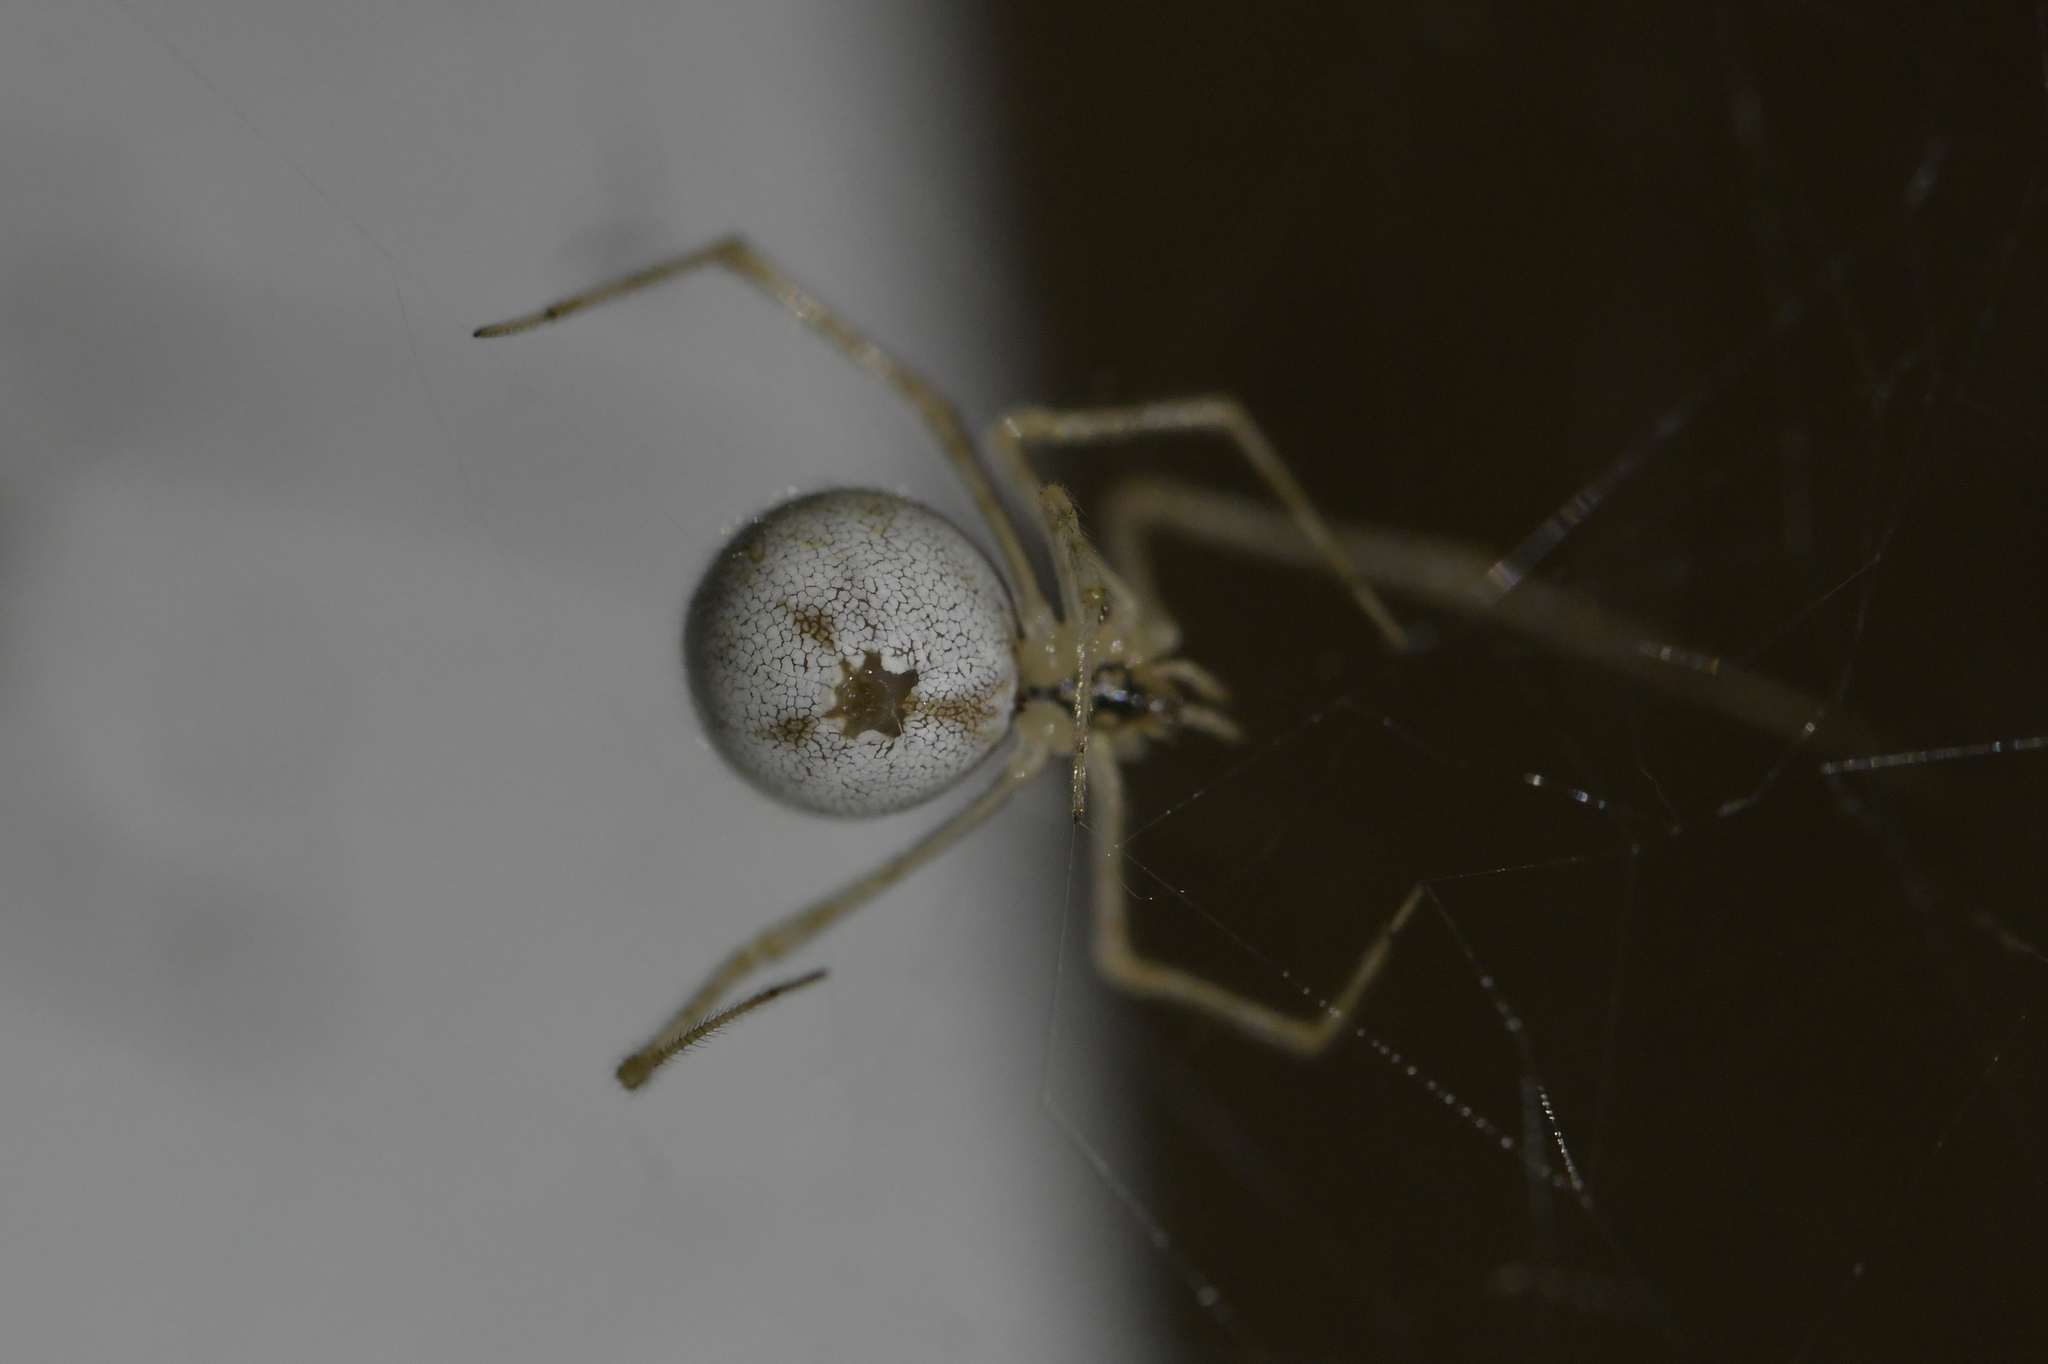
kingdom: Animalia
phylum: Arthropoda
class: Arachnida
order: Araneae
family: Theridiidae
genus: Cryptachaea
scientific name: Cryptachaea gigantipes
